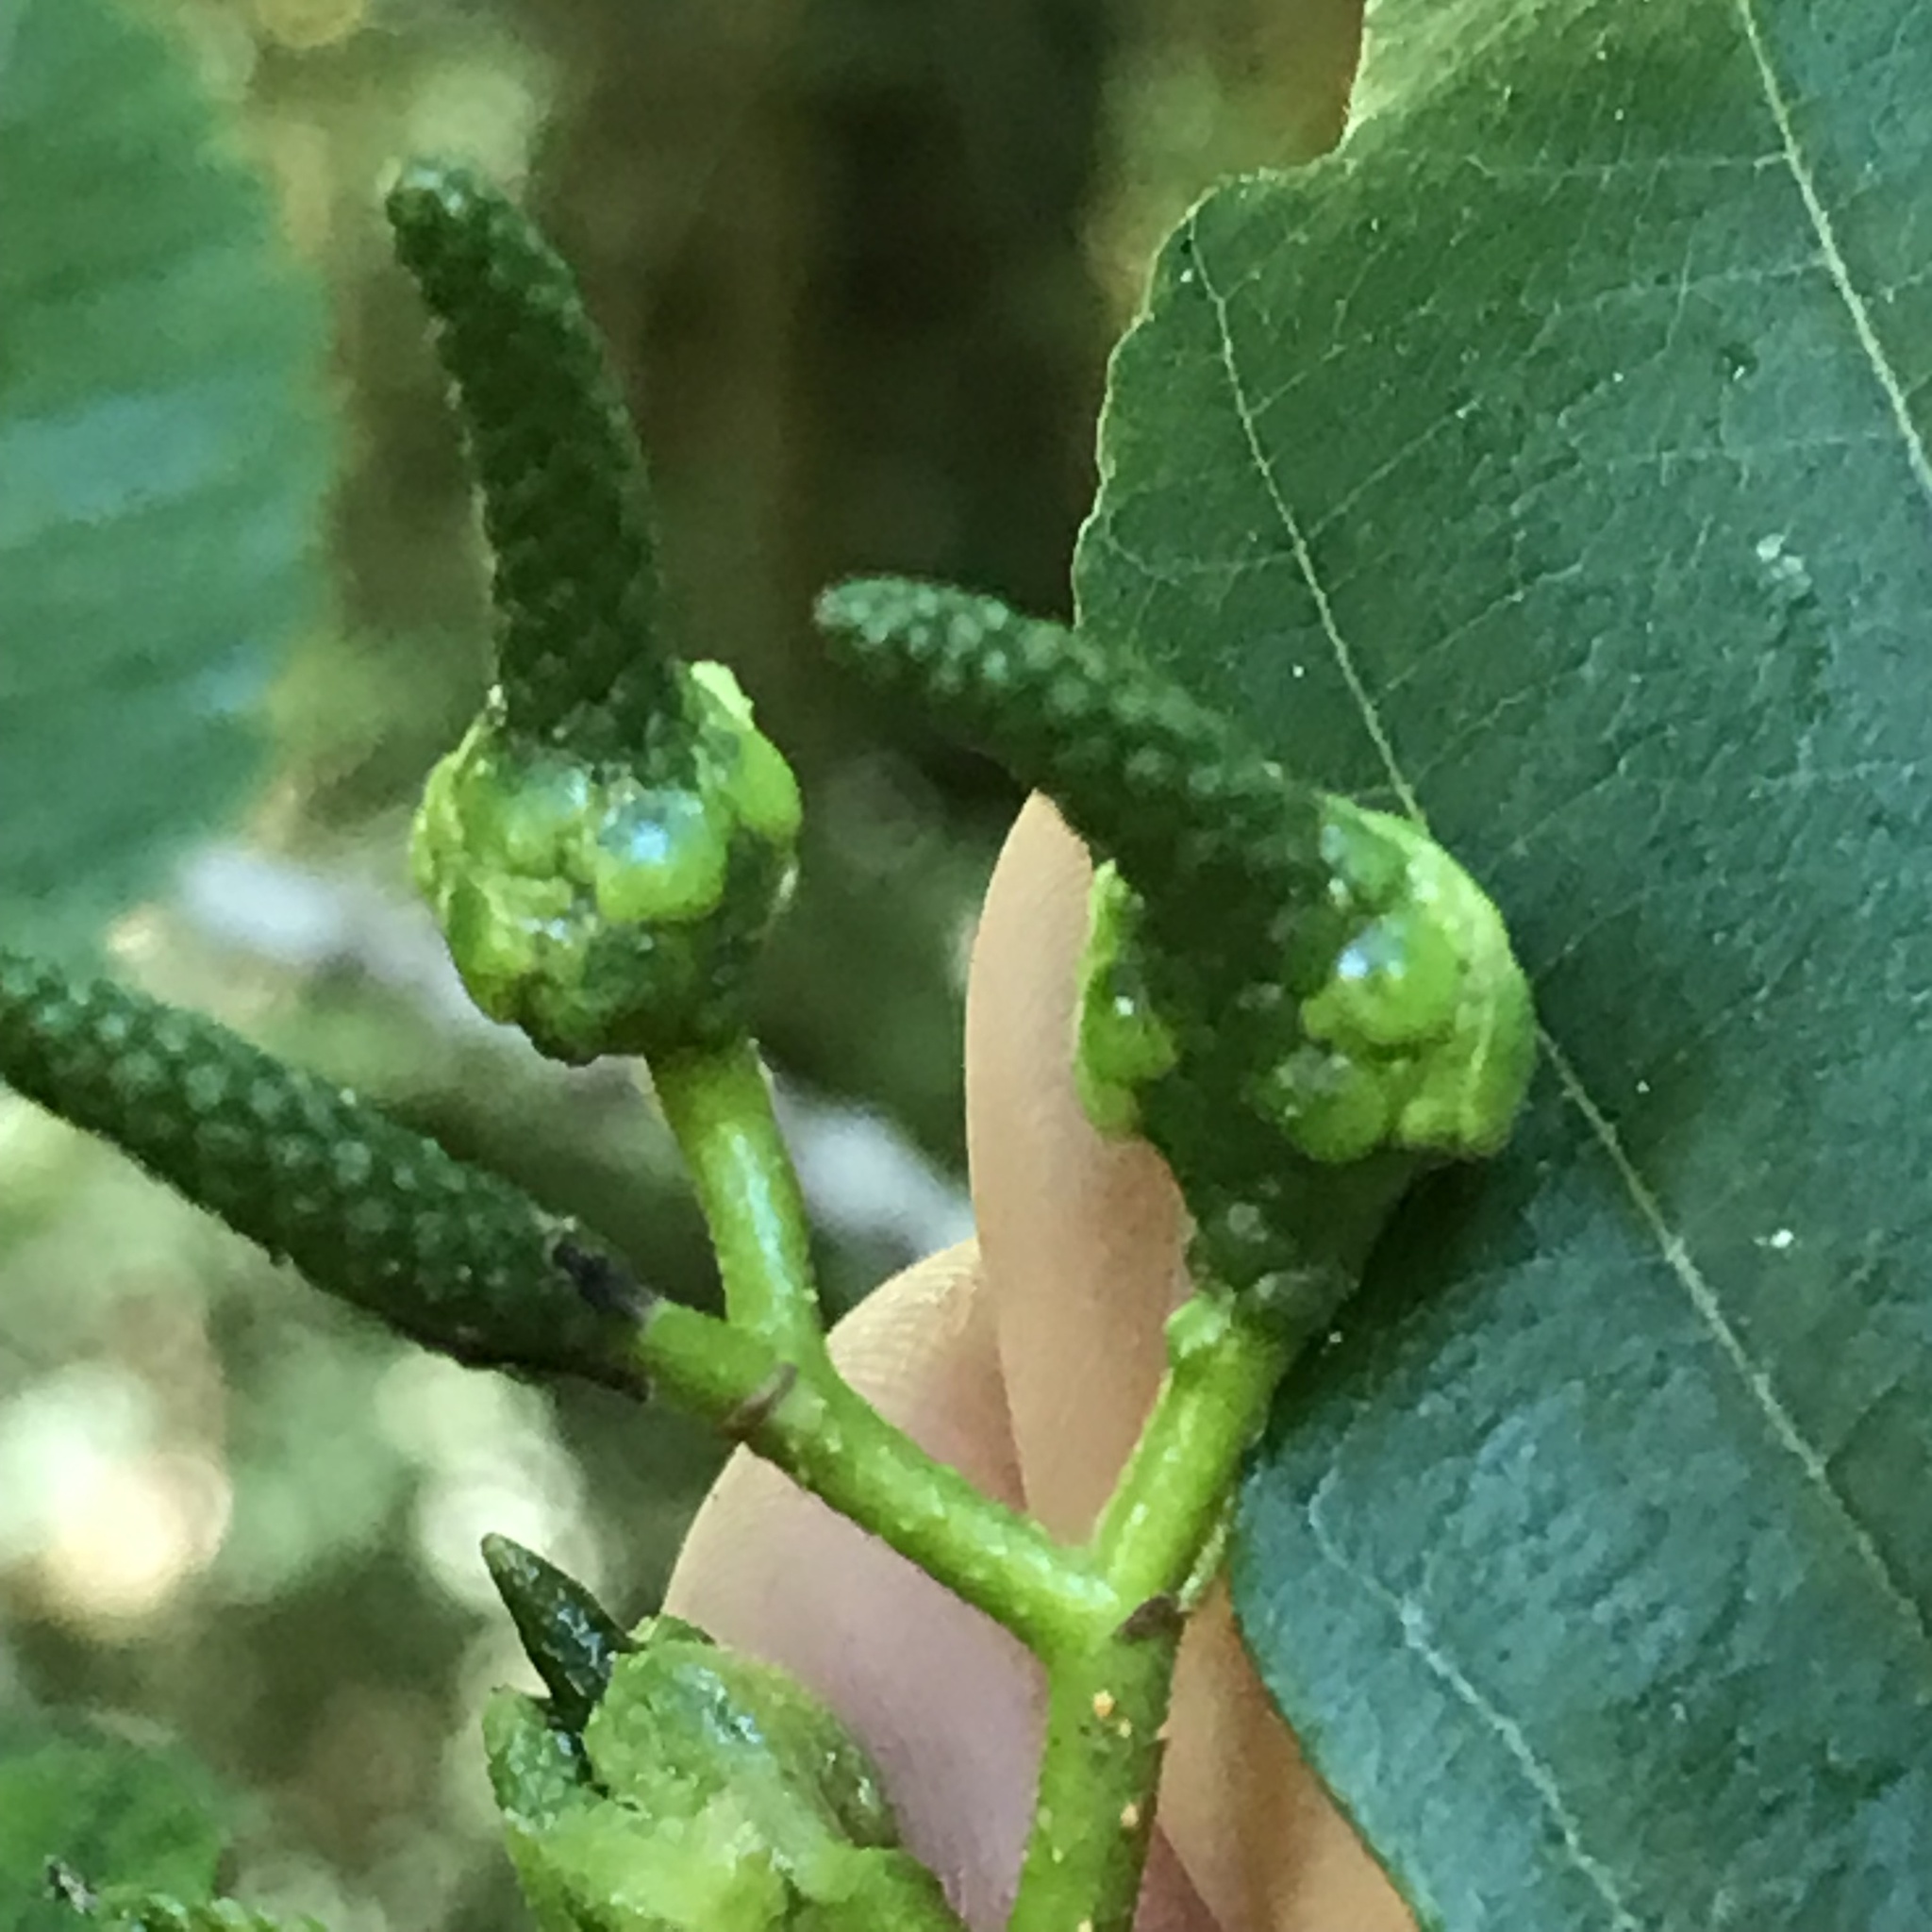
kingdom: Animalia
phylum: Arthropoda
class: Insecta
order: Diptera
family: Cecidomyiidae
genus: Dasineura
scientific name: Dasineura
